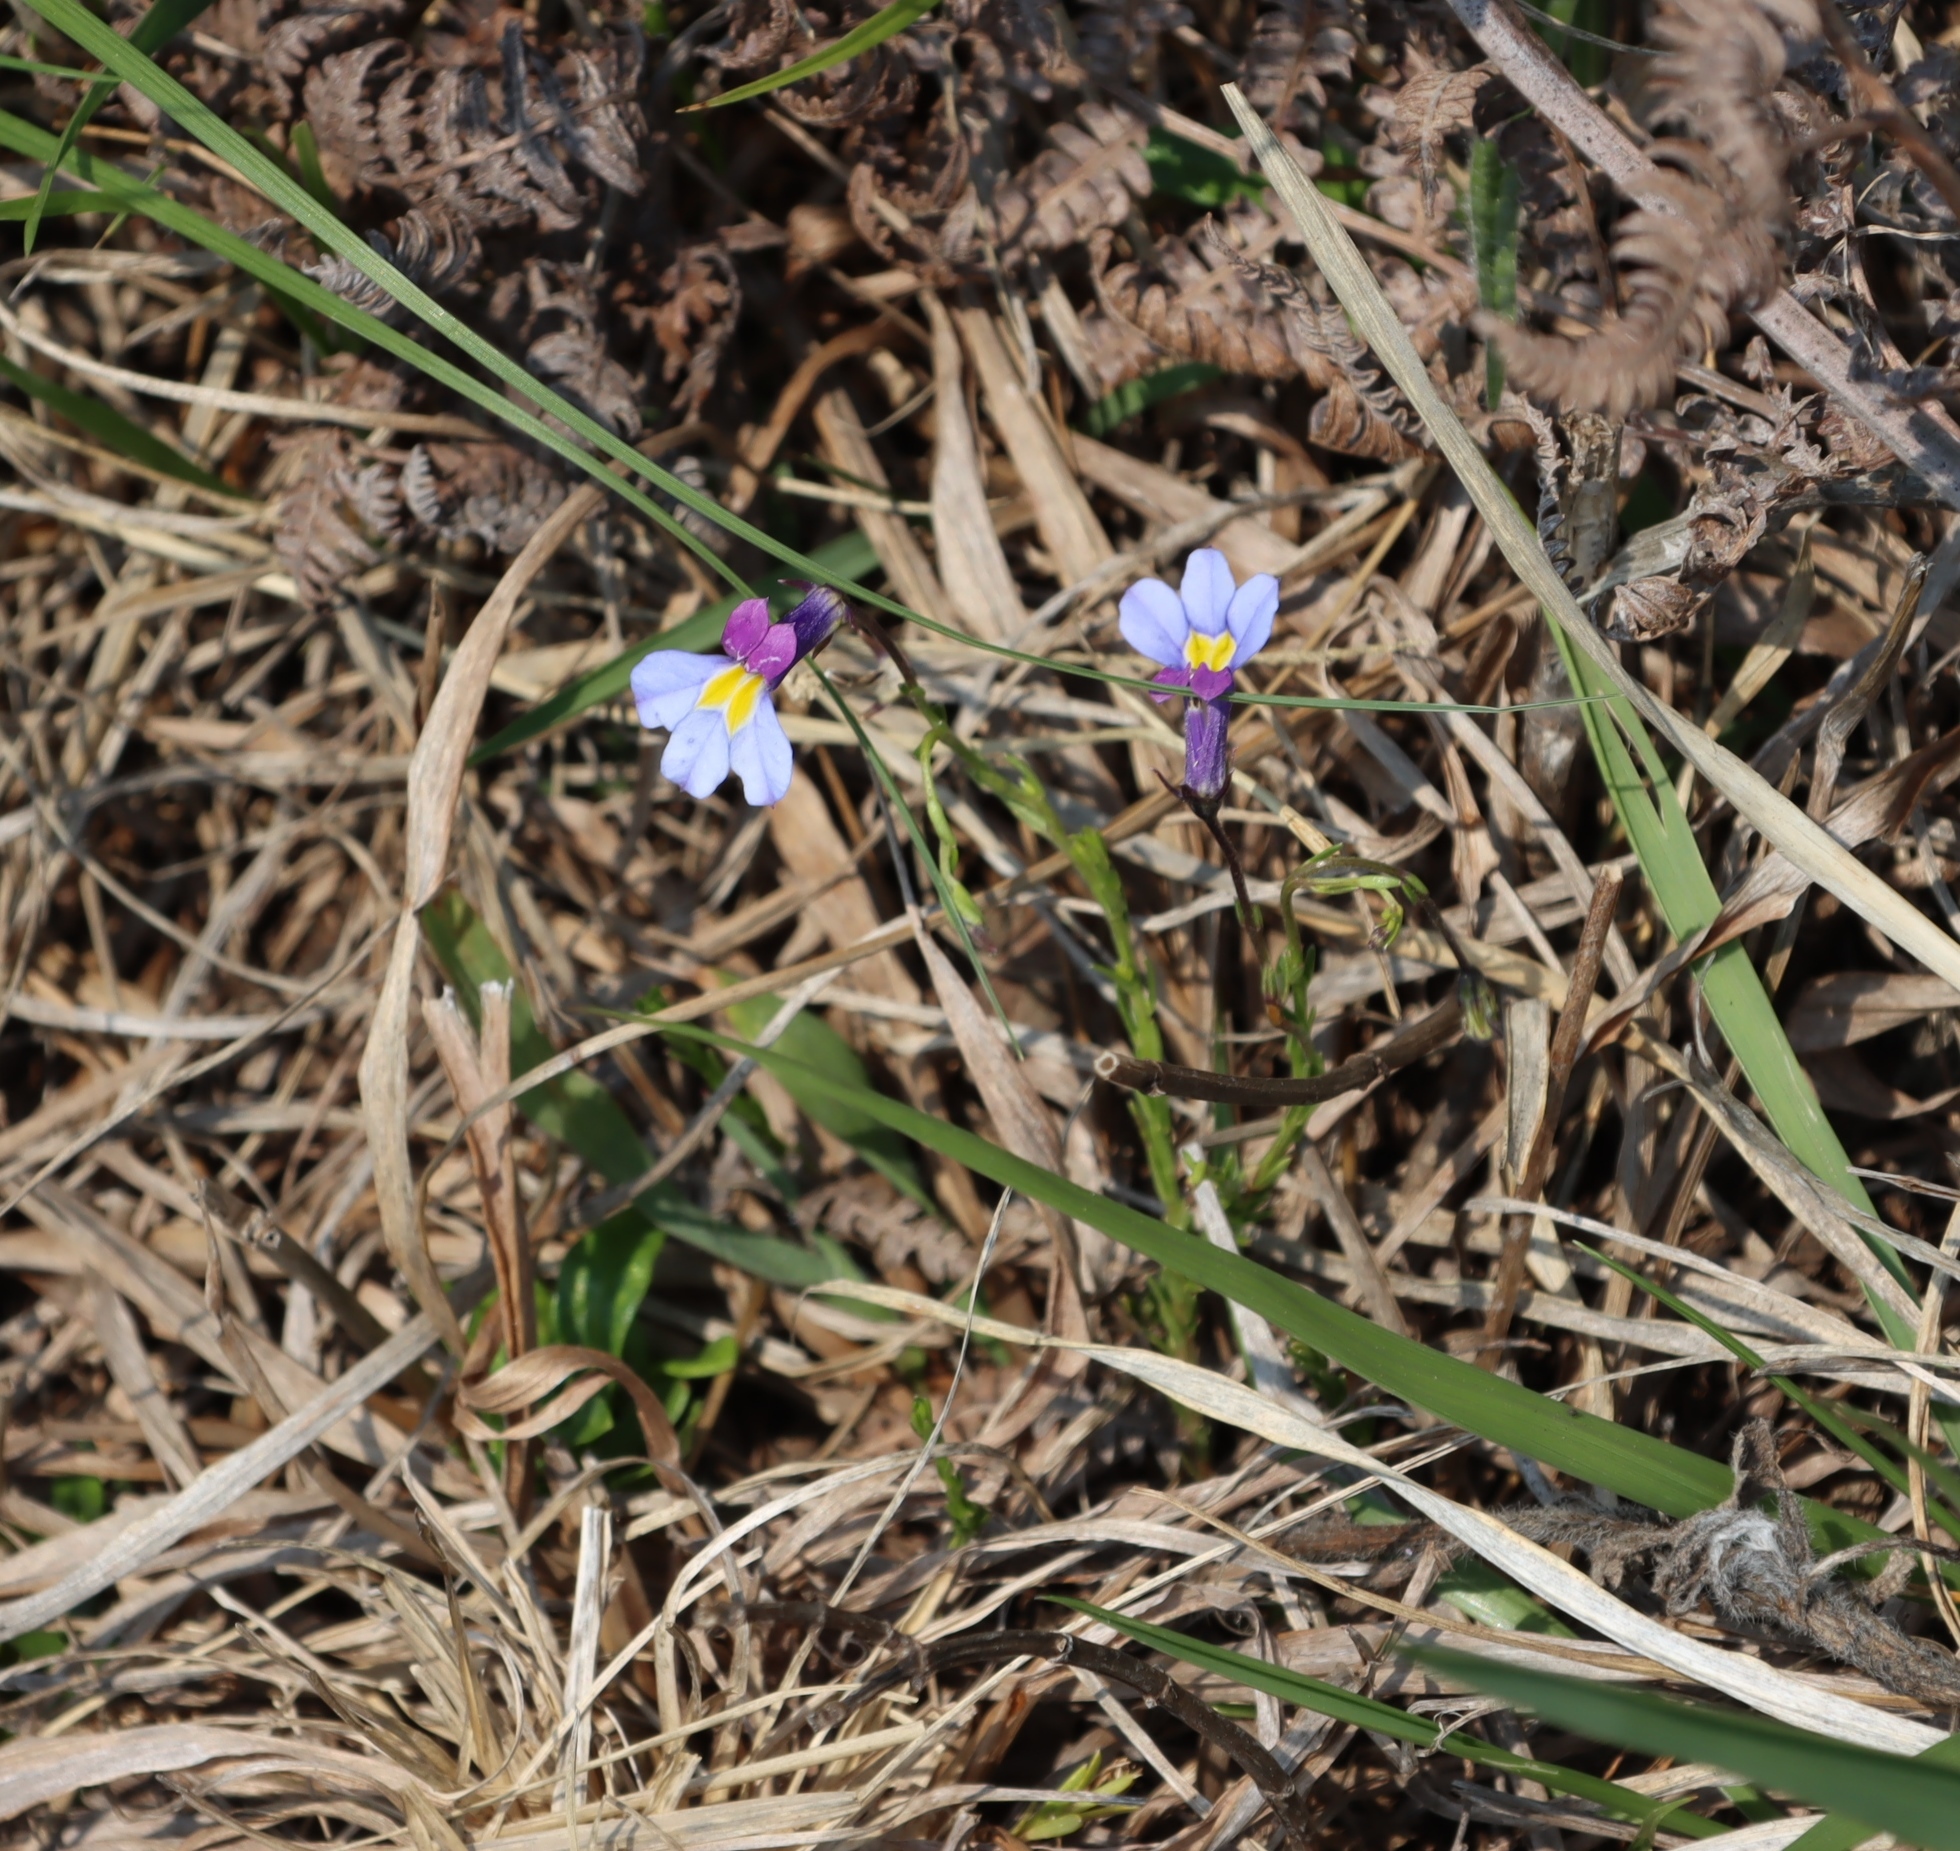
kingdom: Plantae
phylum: Tracheophyta
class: Magnoliopsida
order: Asterales
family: Campanulaceae
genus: Monopsis
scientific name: Monopsis decipiens
